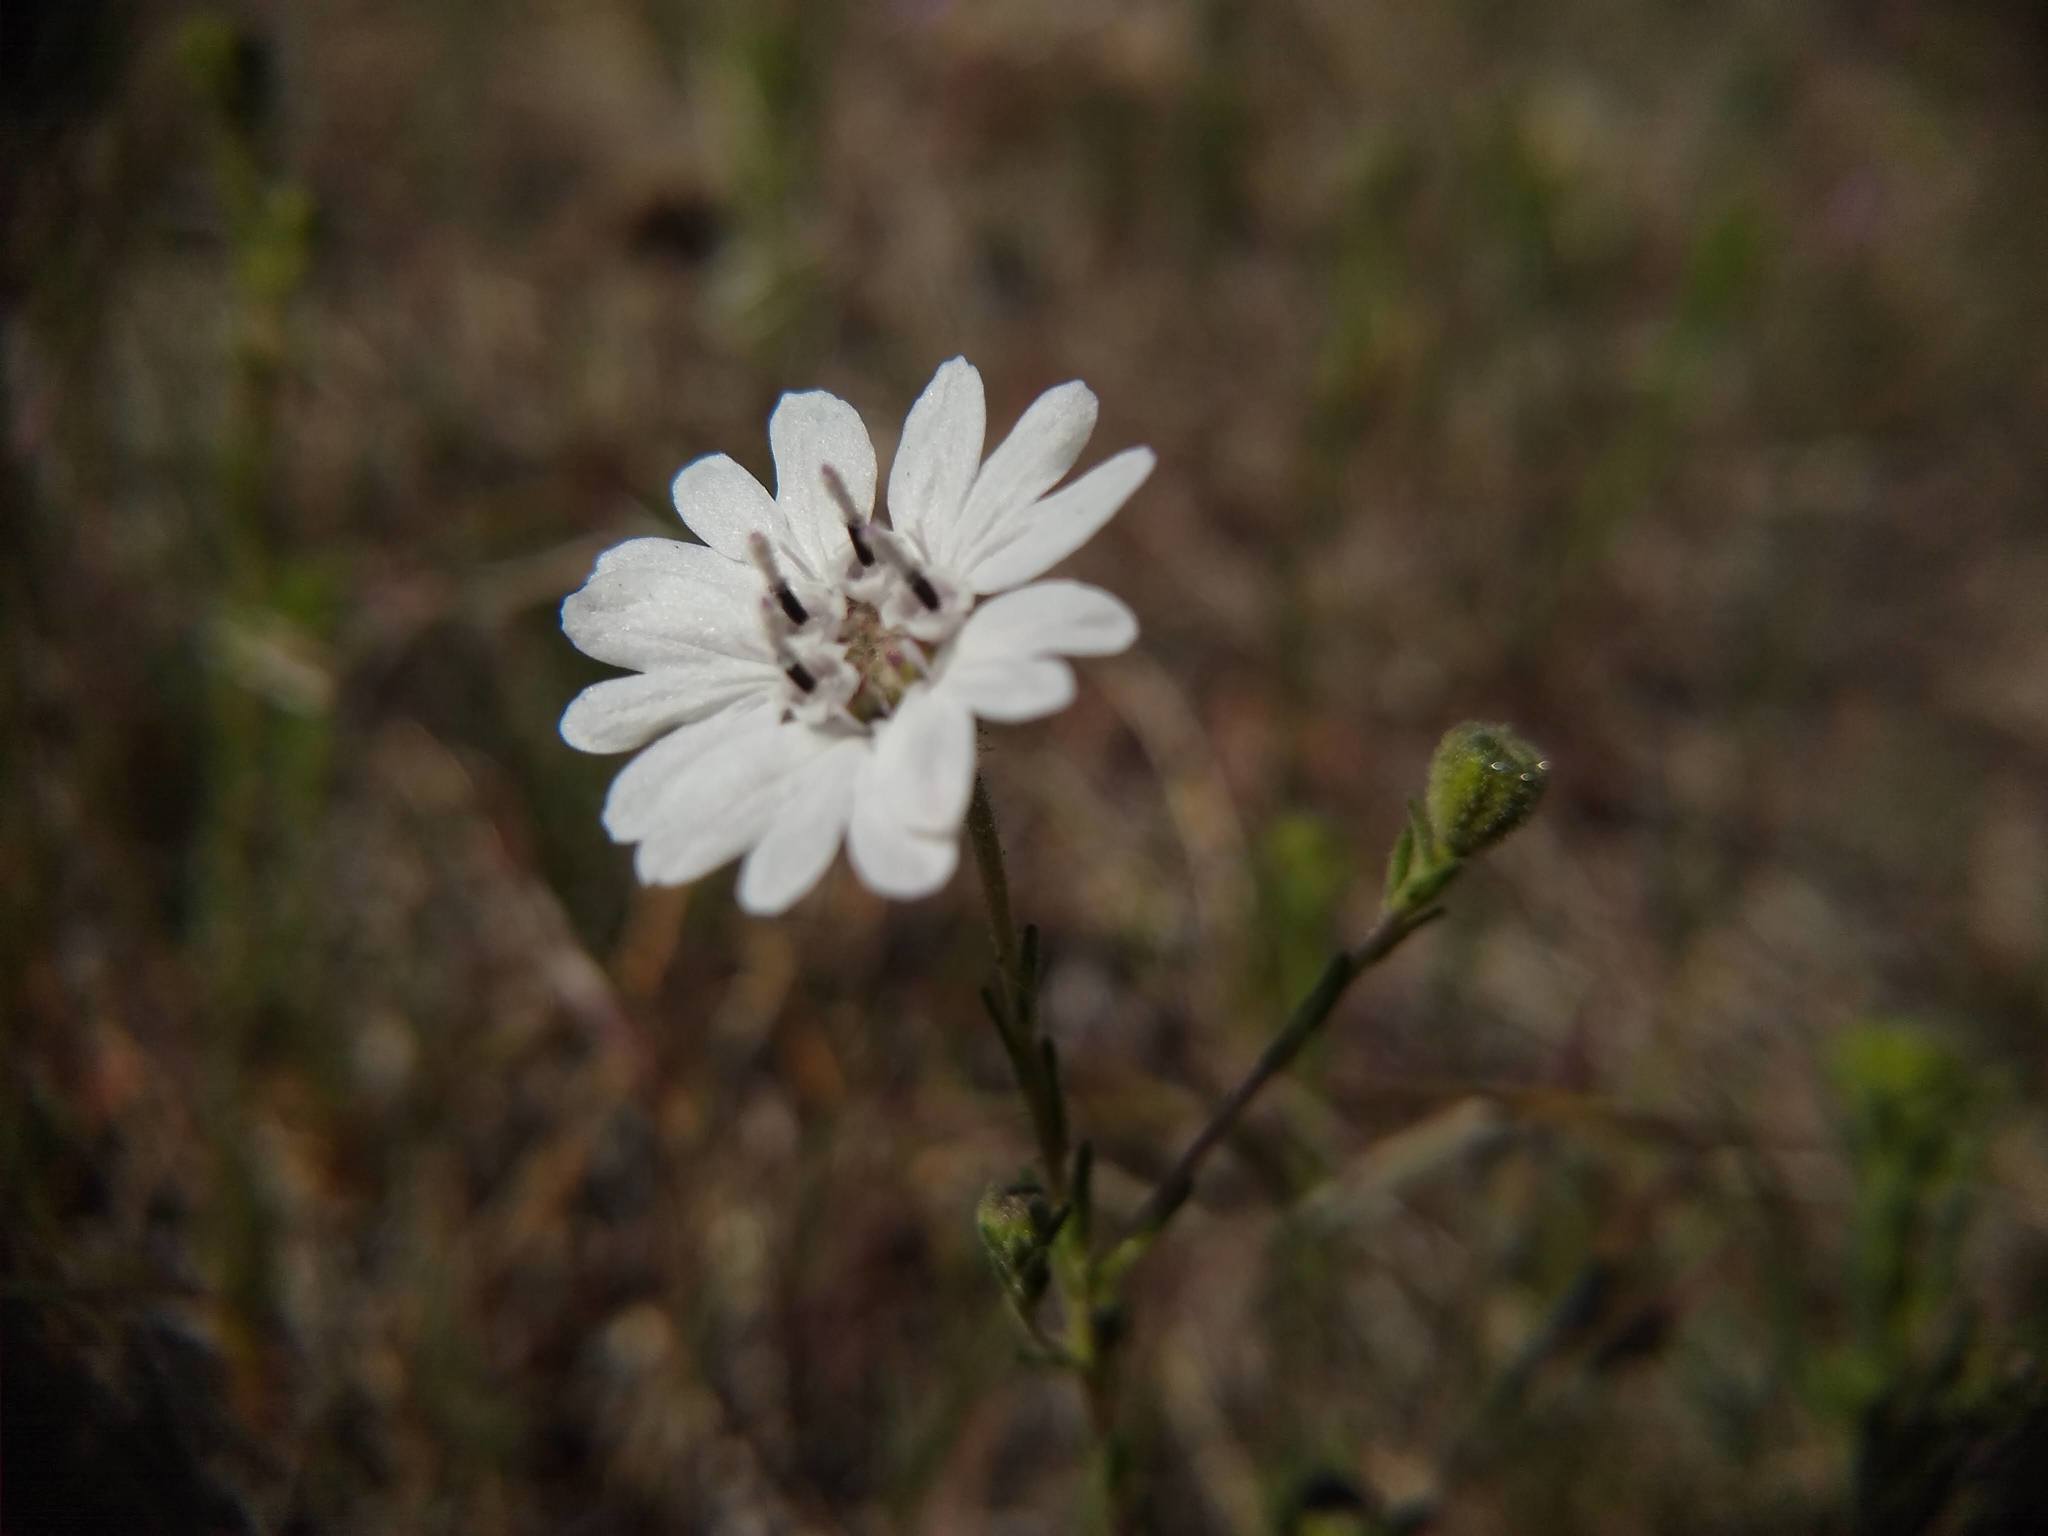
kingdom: Plantae
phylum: Tracheophyta
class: Magnoliopsida
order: Asterales
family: Asteraceae
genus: Blepharipappus
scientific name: Blepharipappus scaber
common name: Rough blepharipappus
